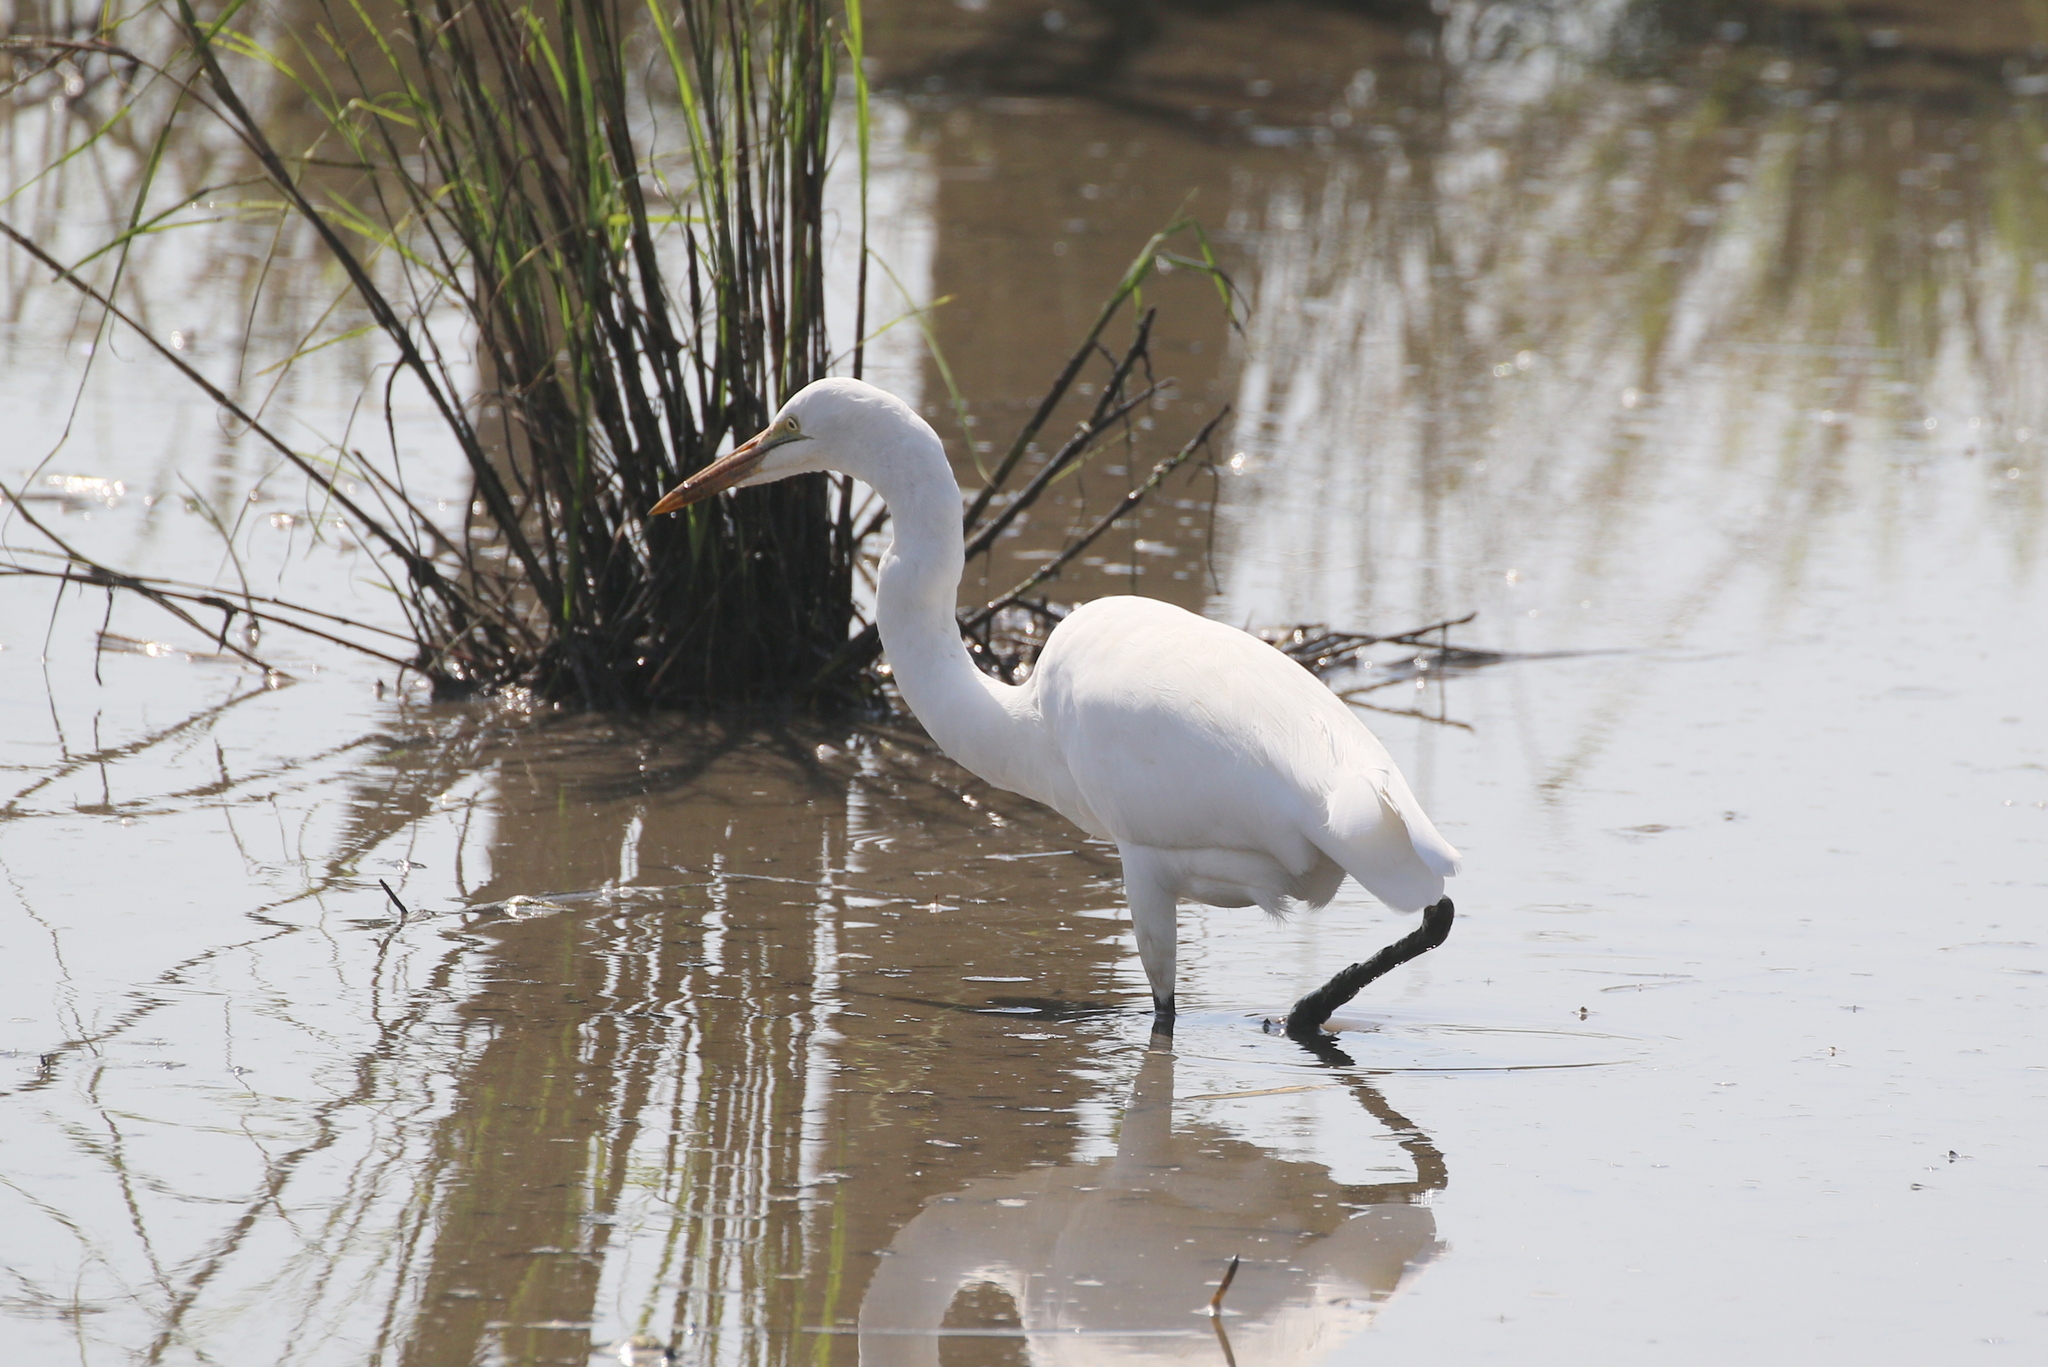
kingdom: Animalia
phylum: Chordata
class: Aves
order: Pelecaniformes
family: Ardeidae
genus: Ardea
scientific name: Ardea alba
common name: Great egret
